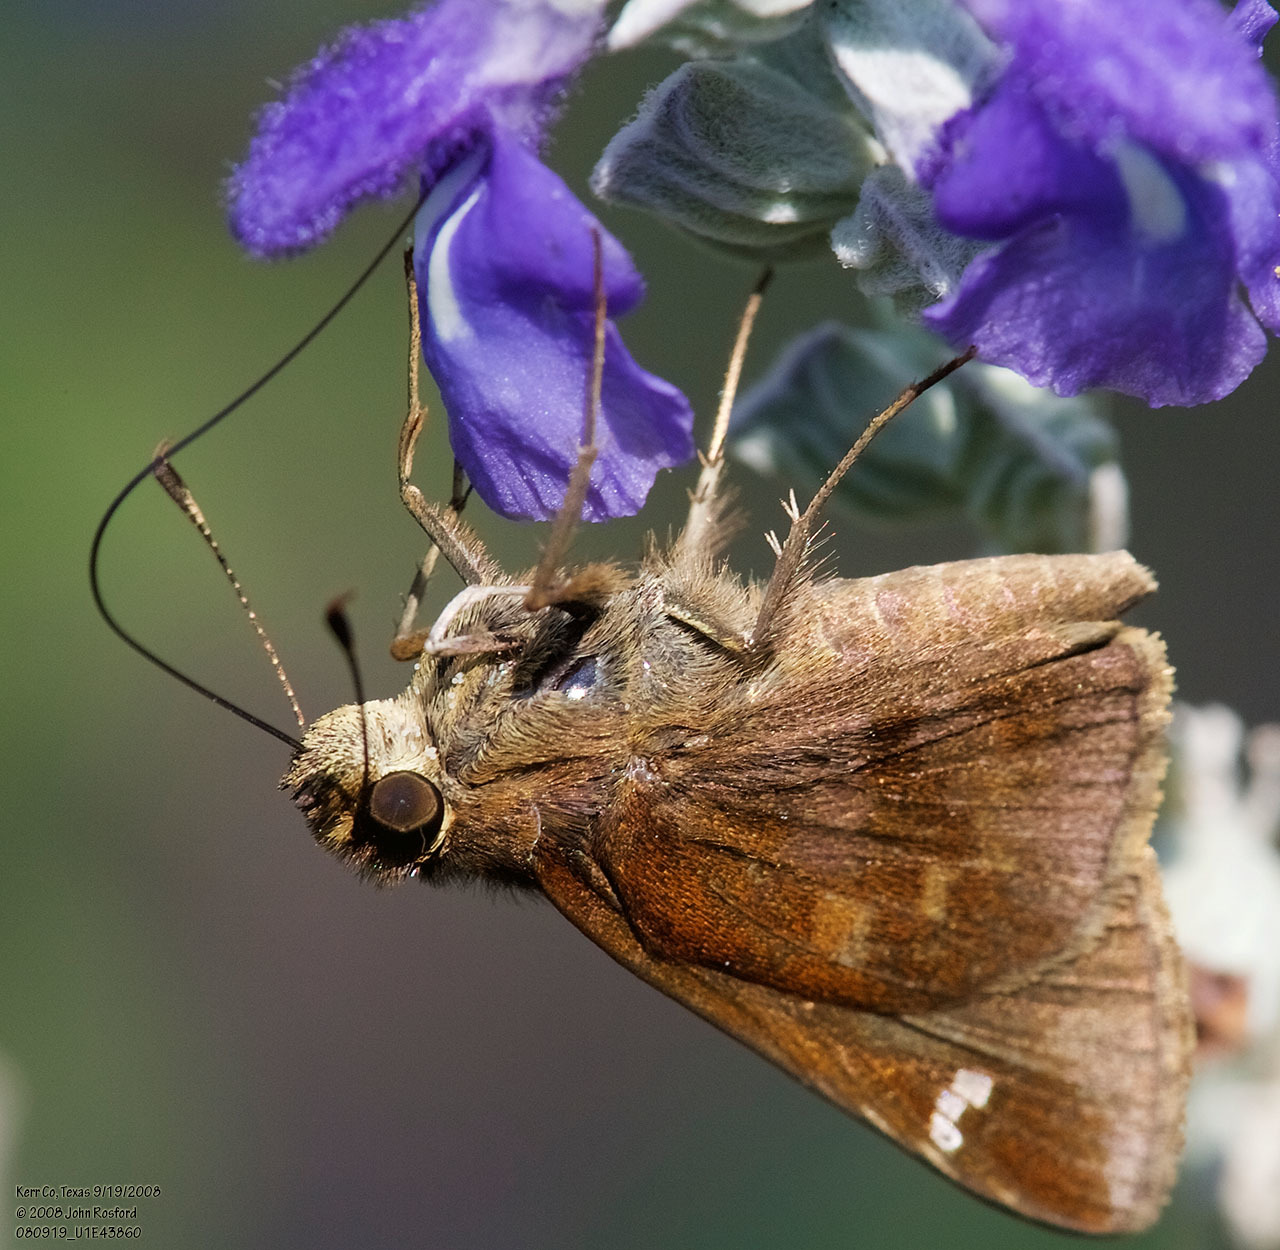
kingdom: Animalia
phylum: Arthropoda
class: Insecta
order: Lepidoptera
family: Hesperiidae
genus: Lerema
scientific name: Lerema accius
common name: Clouded skipper
